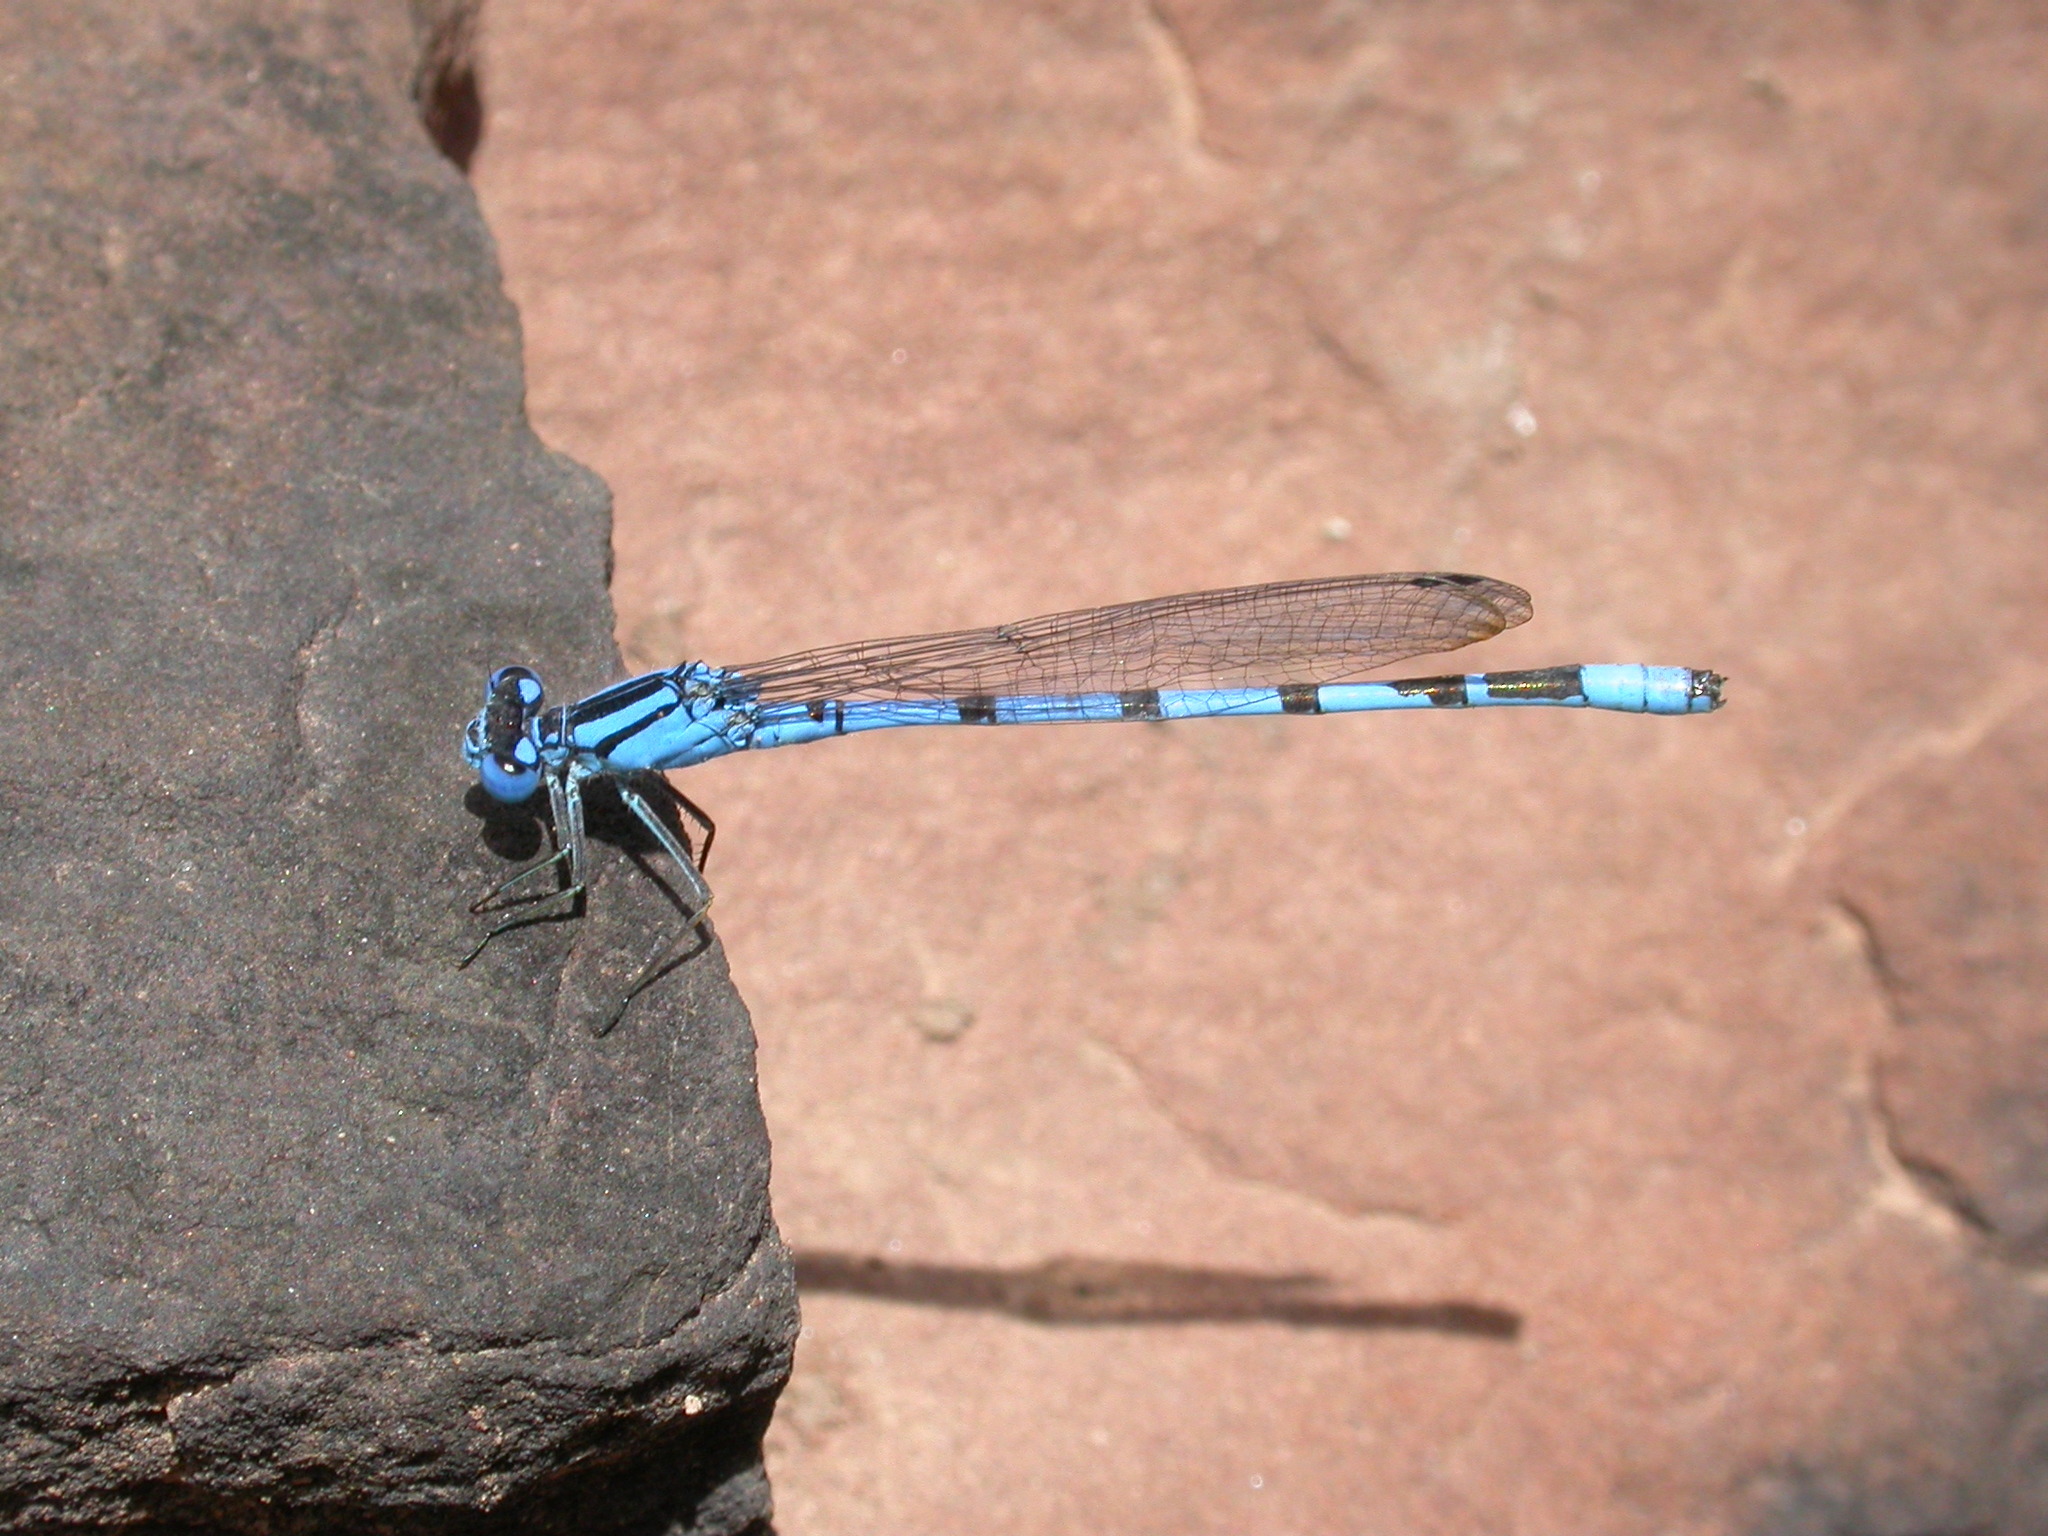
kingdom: Animalia
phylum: Arthropoda
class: Insecta
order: Odonata
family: Coenagrionidae
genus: Enallagma
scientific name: Enallagma cyathigerum
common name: Common blue damselfly
